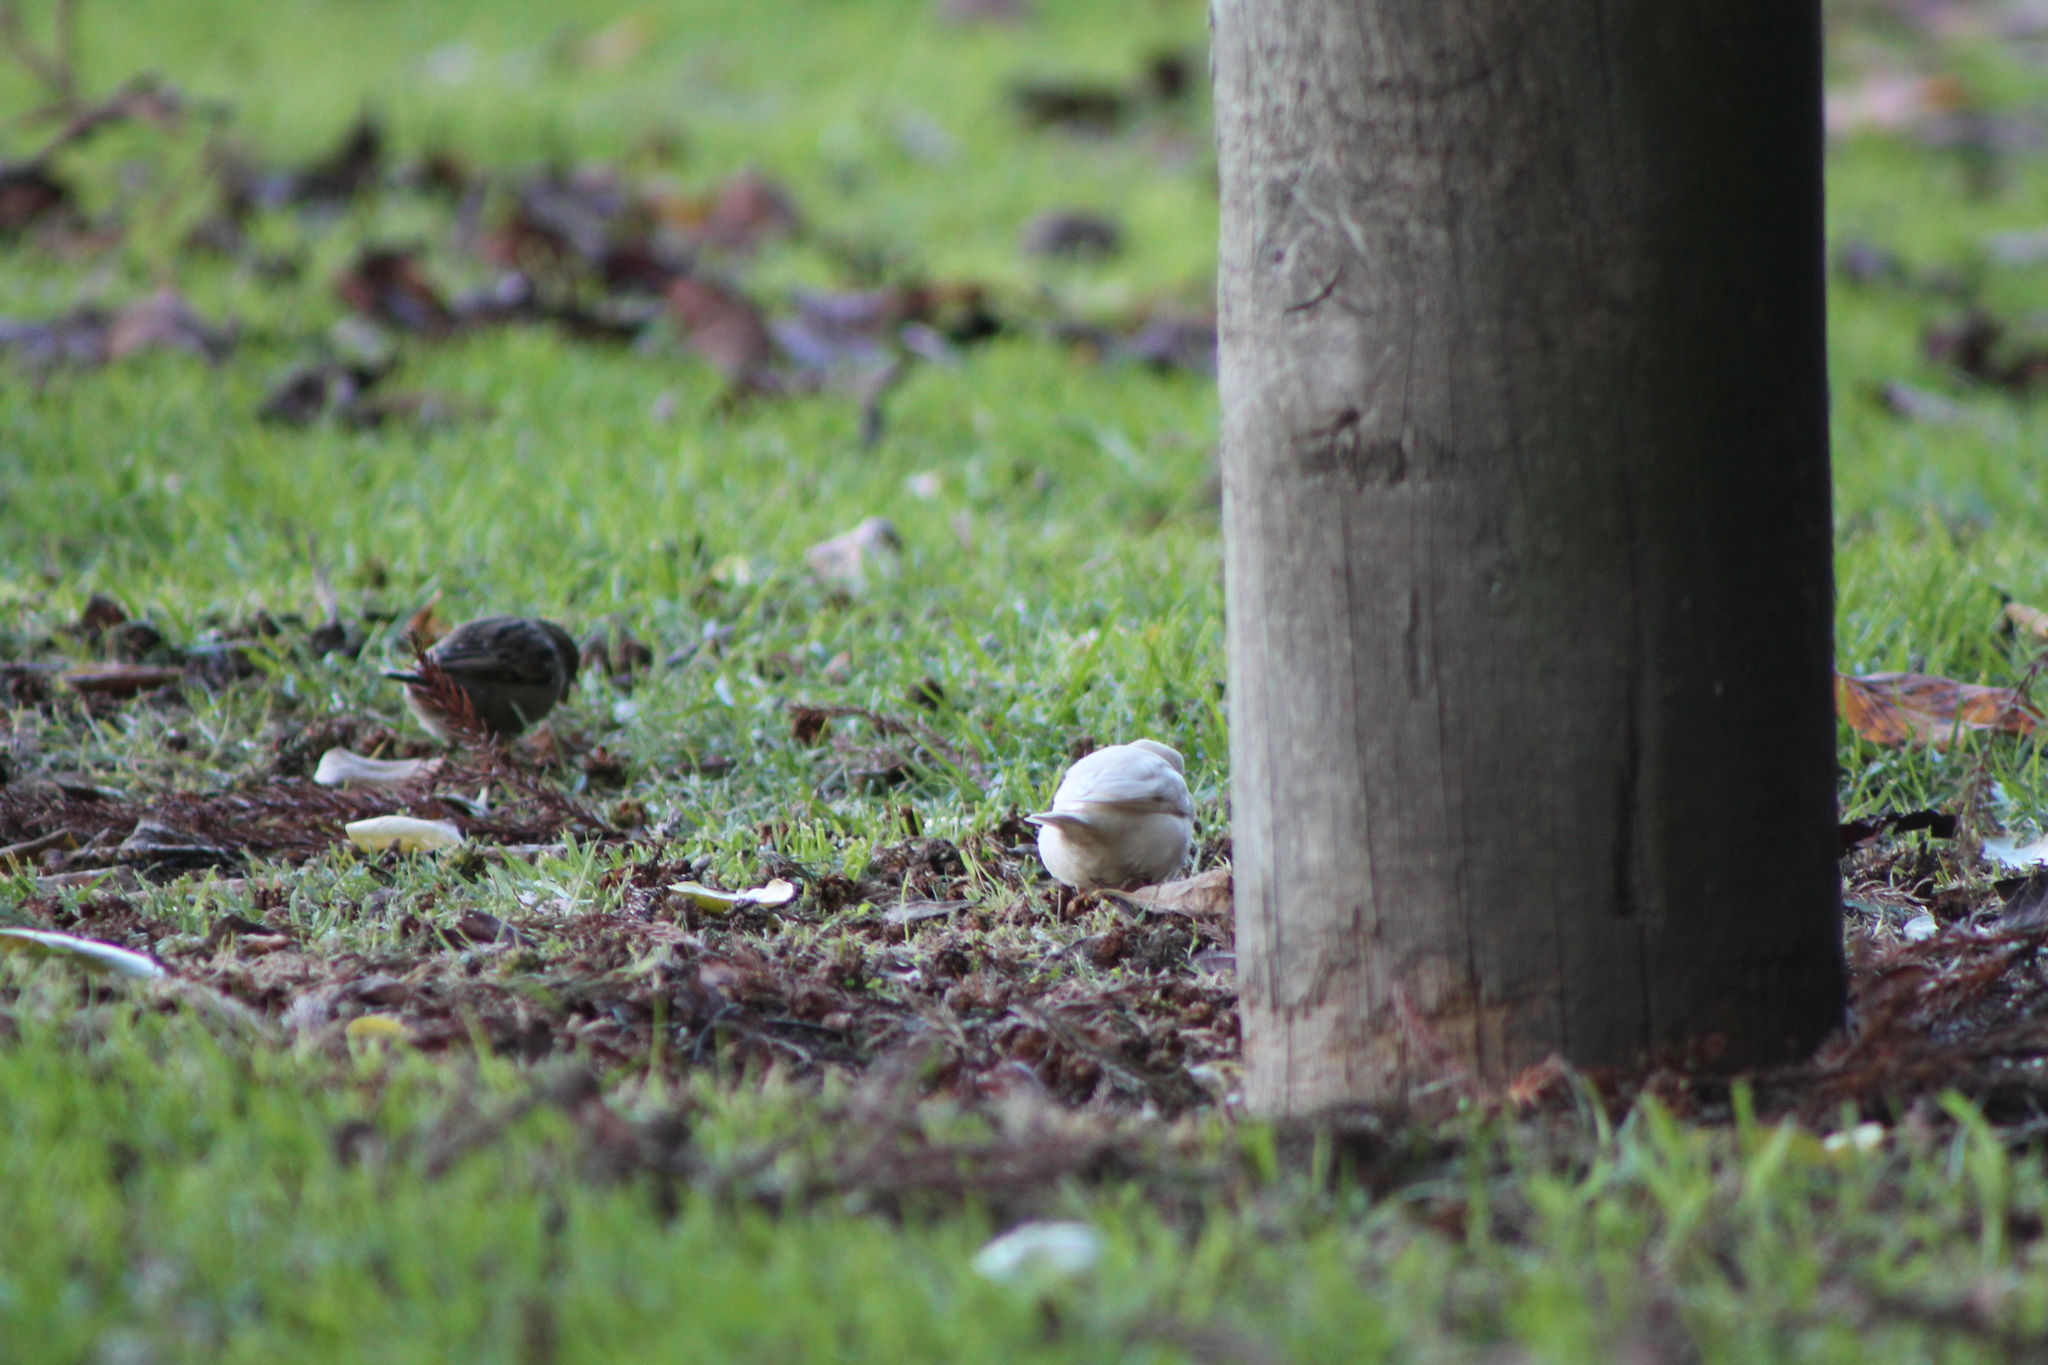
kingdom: Animalia
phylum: Chordata
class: Aves
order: Passeriformes
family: Passeridae
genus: Passer
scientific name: Passer domesticus
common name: House sparrow
